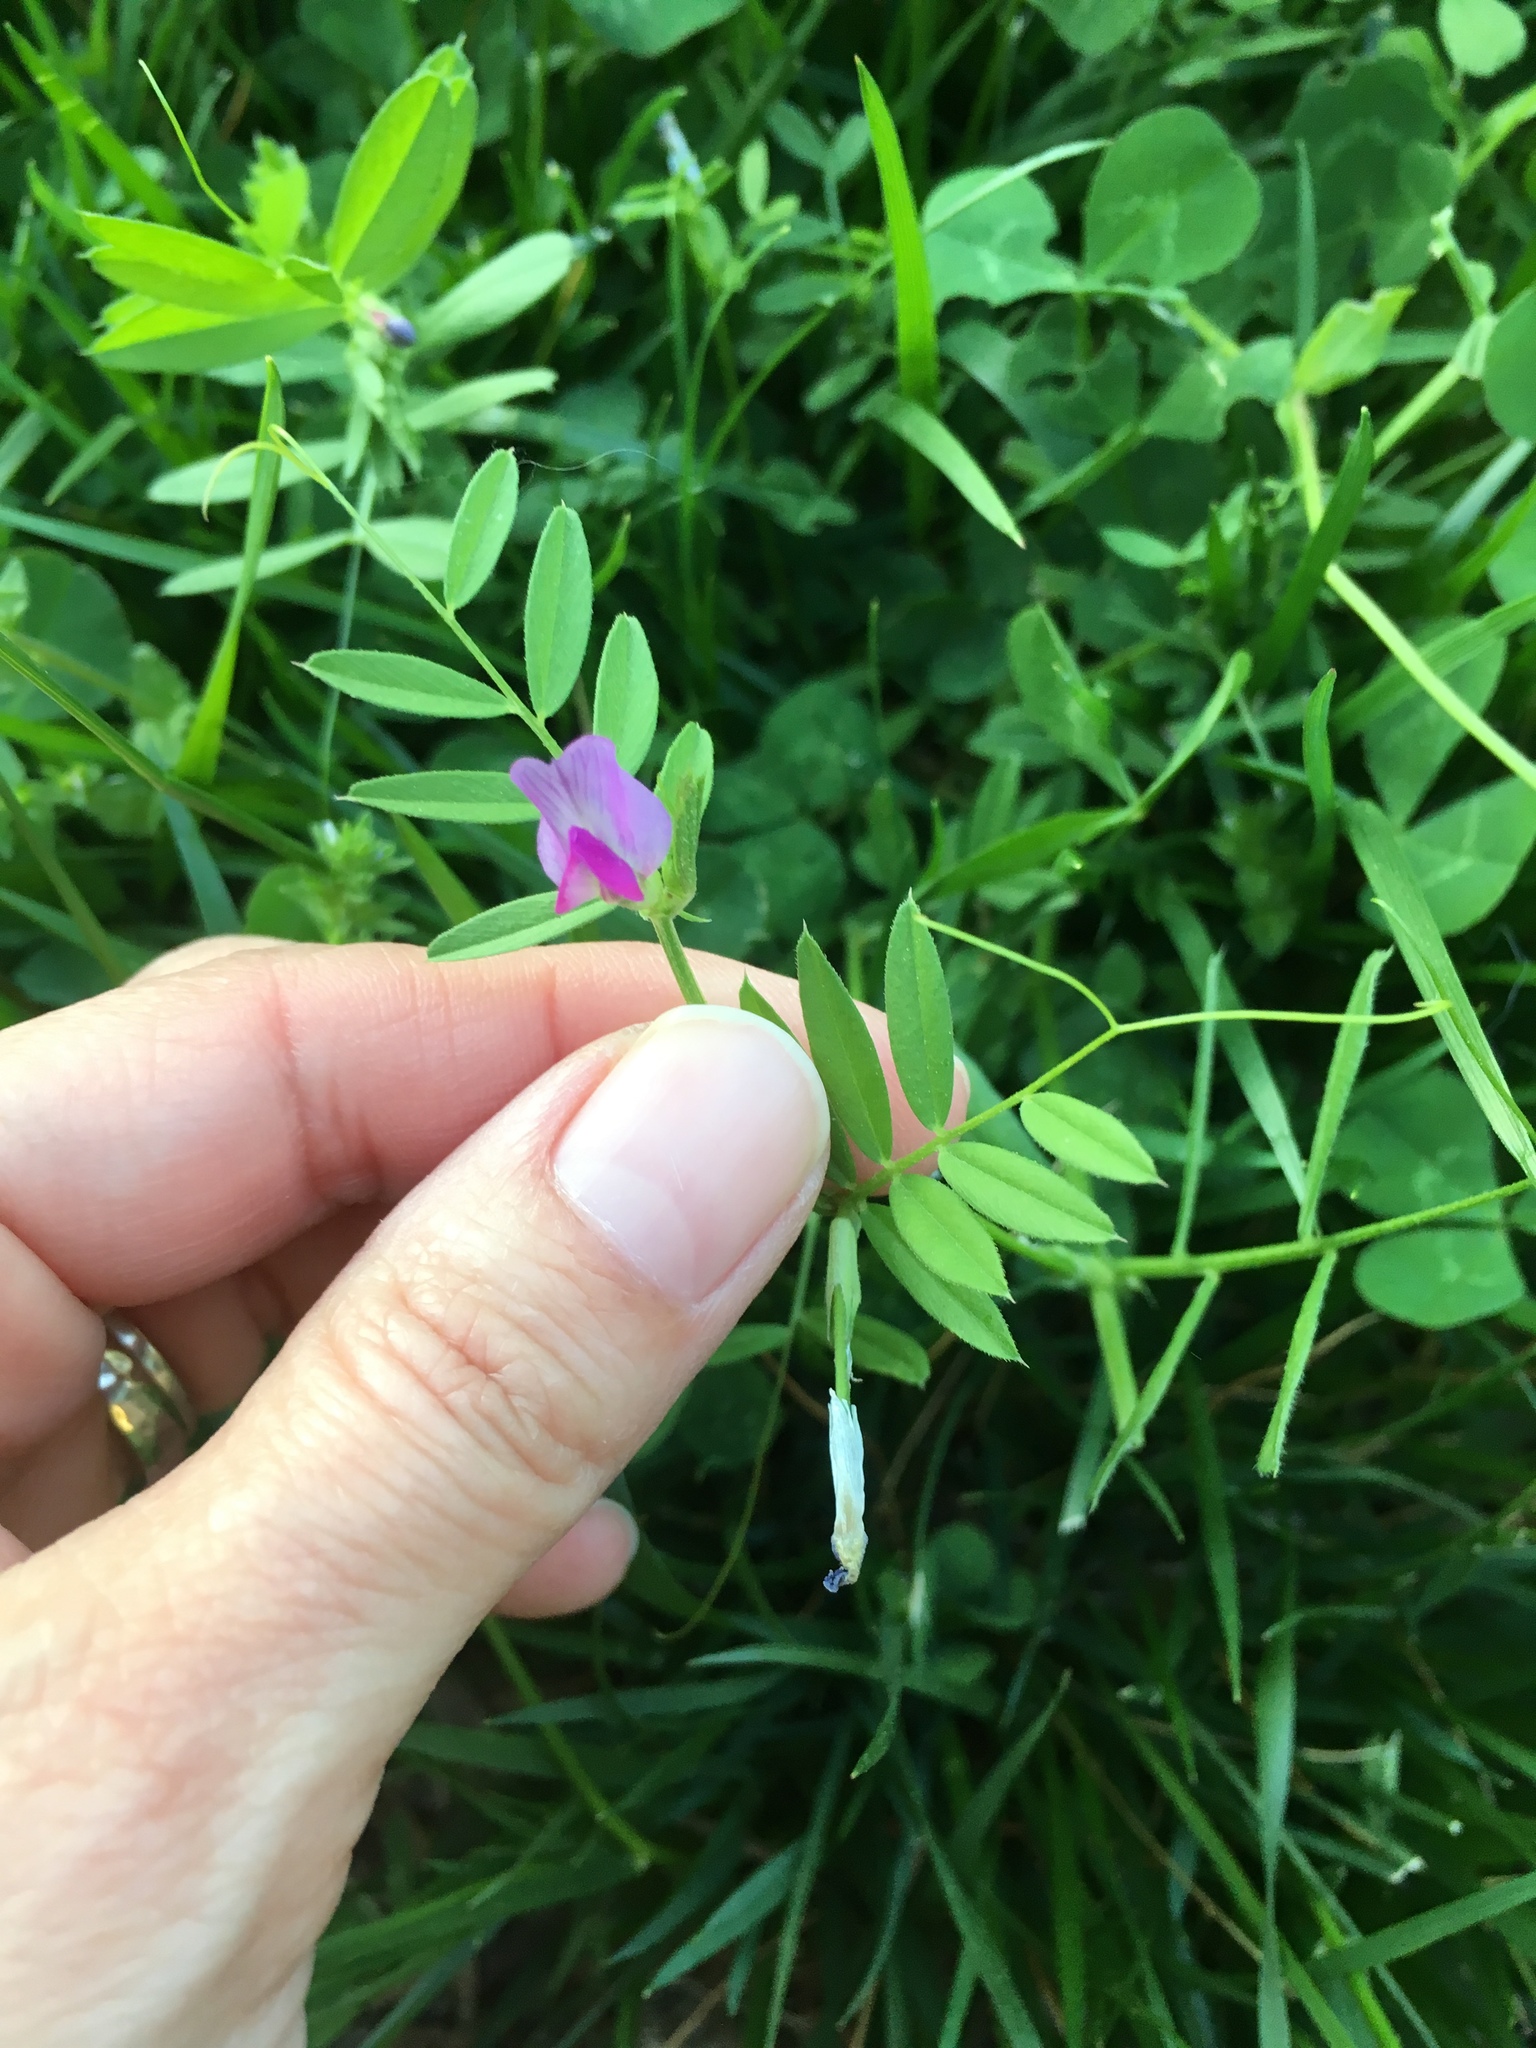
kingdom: Plantae
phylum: Tracheophyta
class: Magnoliopsida
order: Fabales
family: Fabaceae
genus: Vicia
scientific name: Vicia sativa
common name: Garden vetch
